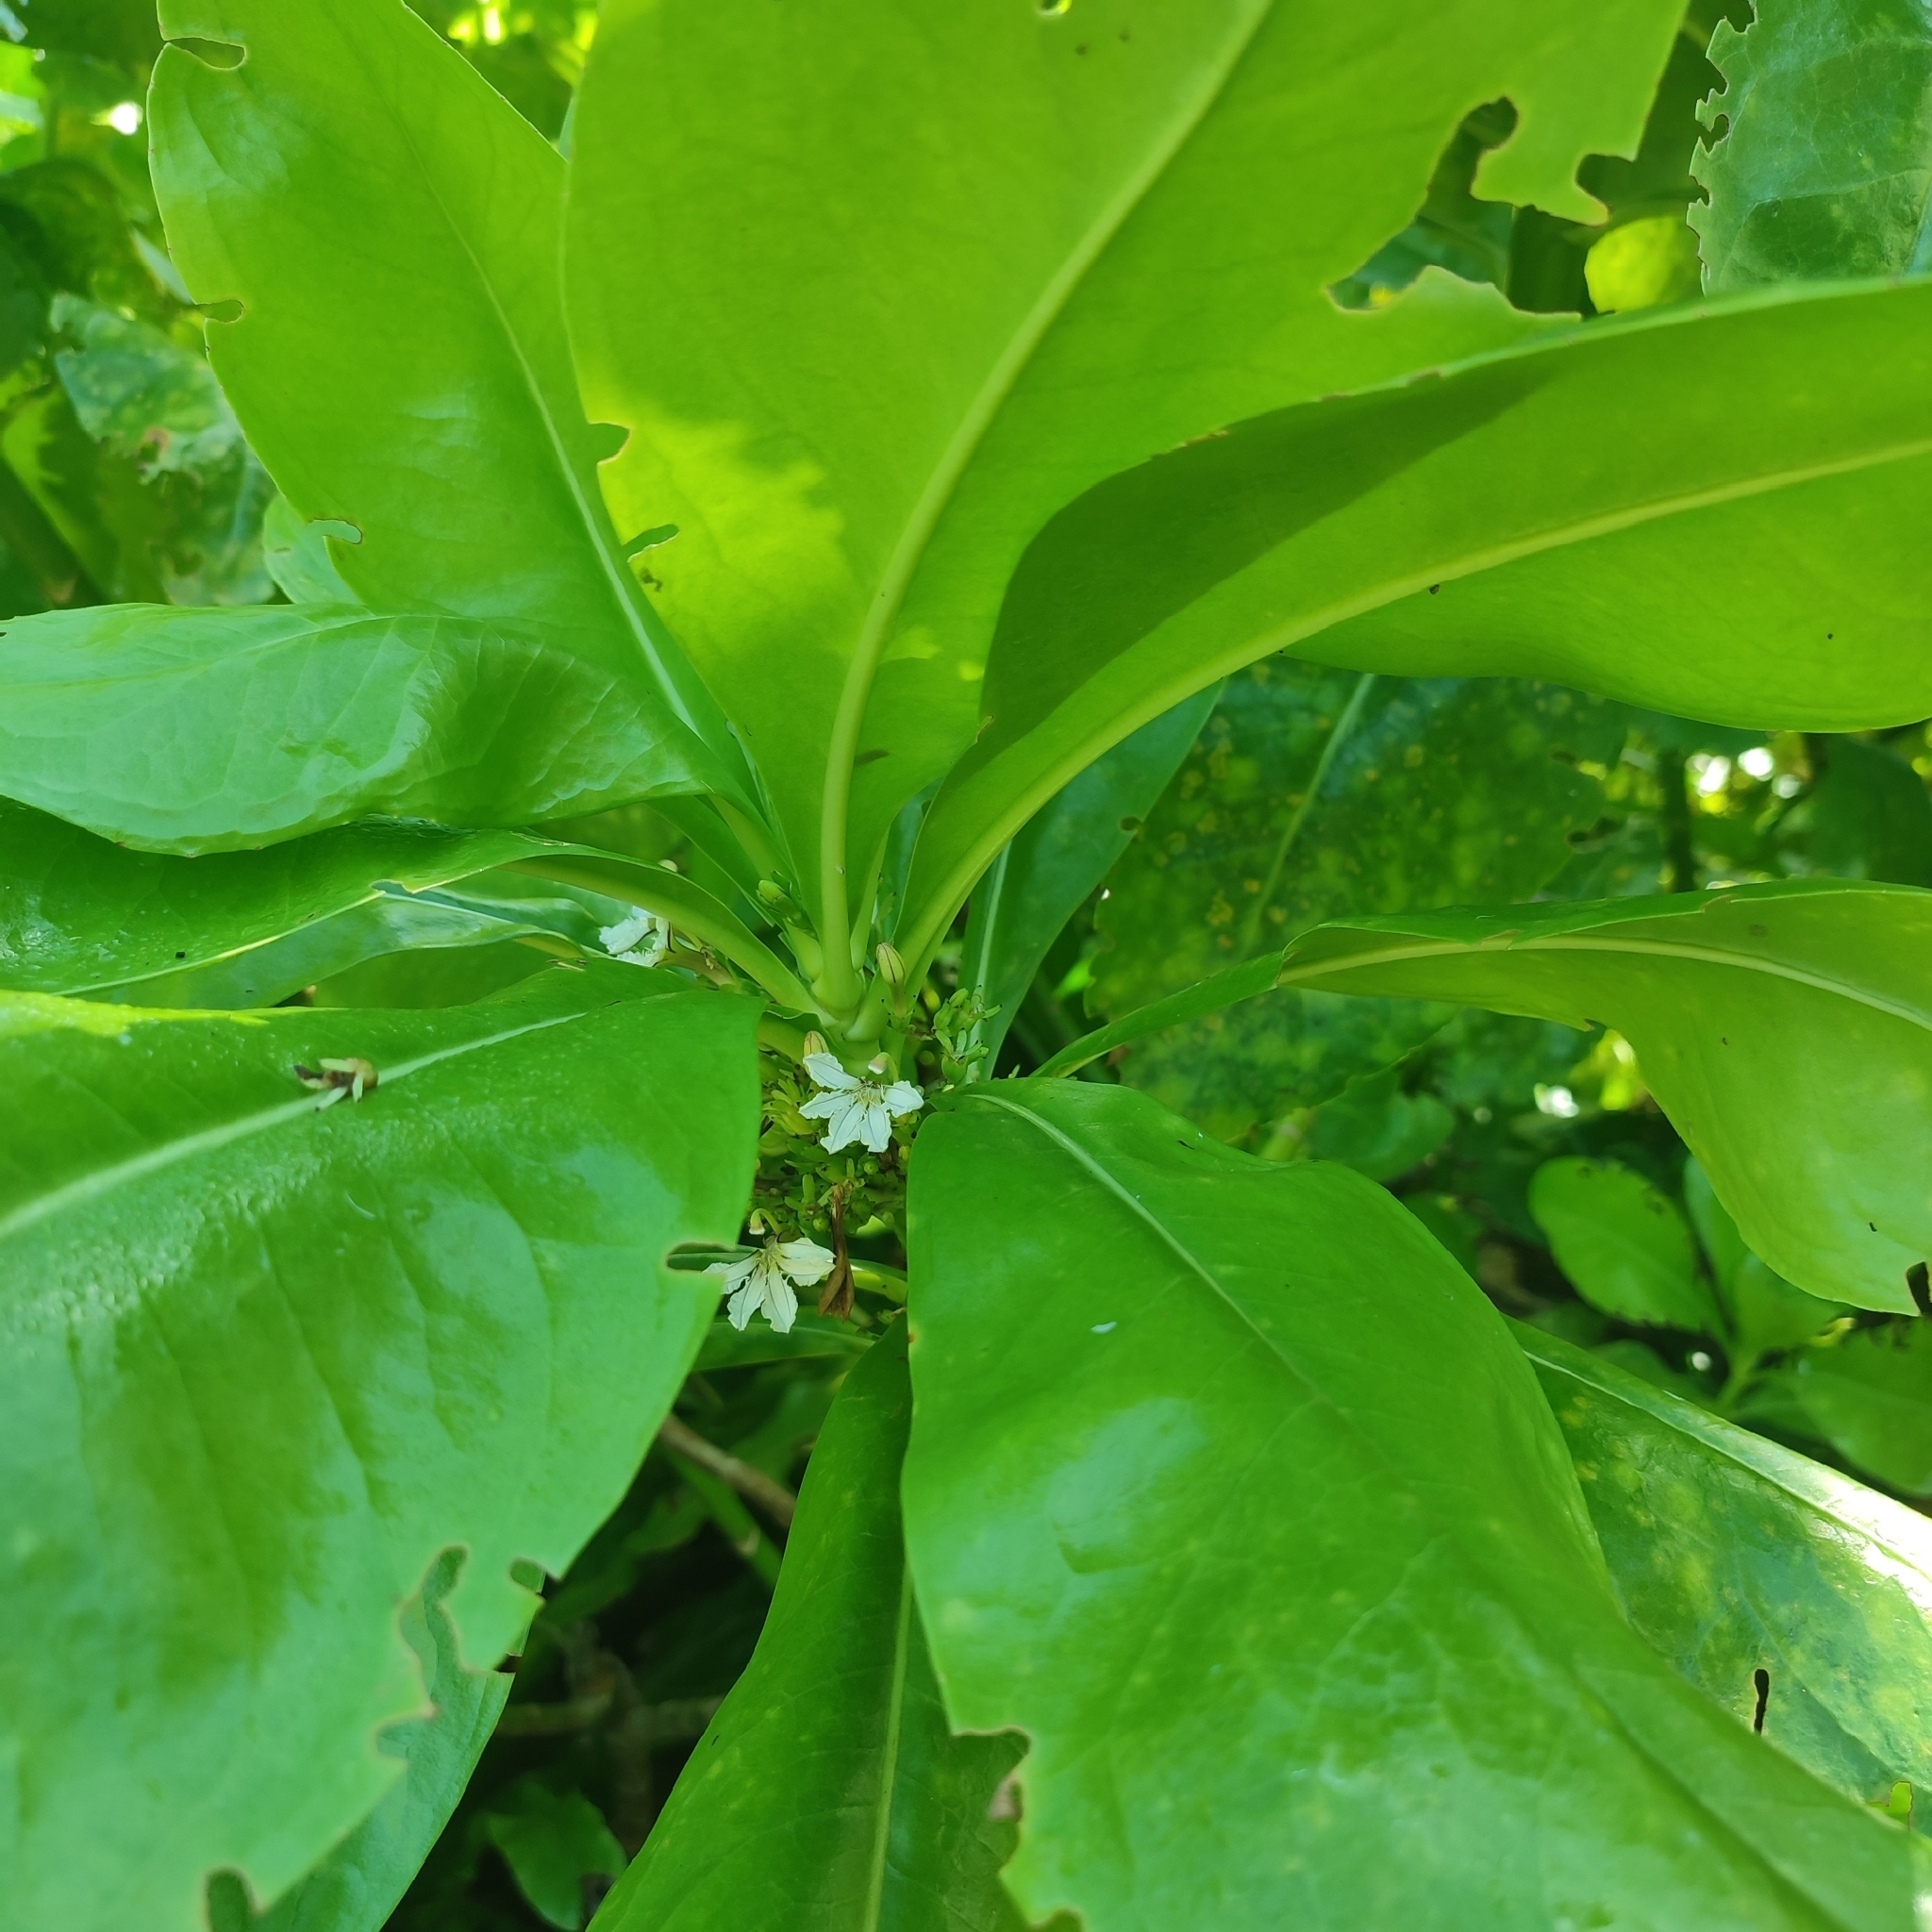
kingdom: Plantae
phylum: Tracheophyta
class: Magnoliopsida
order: Asterales
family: Goodeniaceae
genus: Scaevola
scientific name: Scaevola taccada
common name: Sea lettucetree
